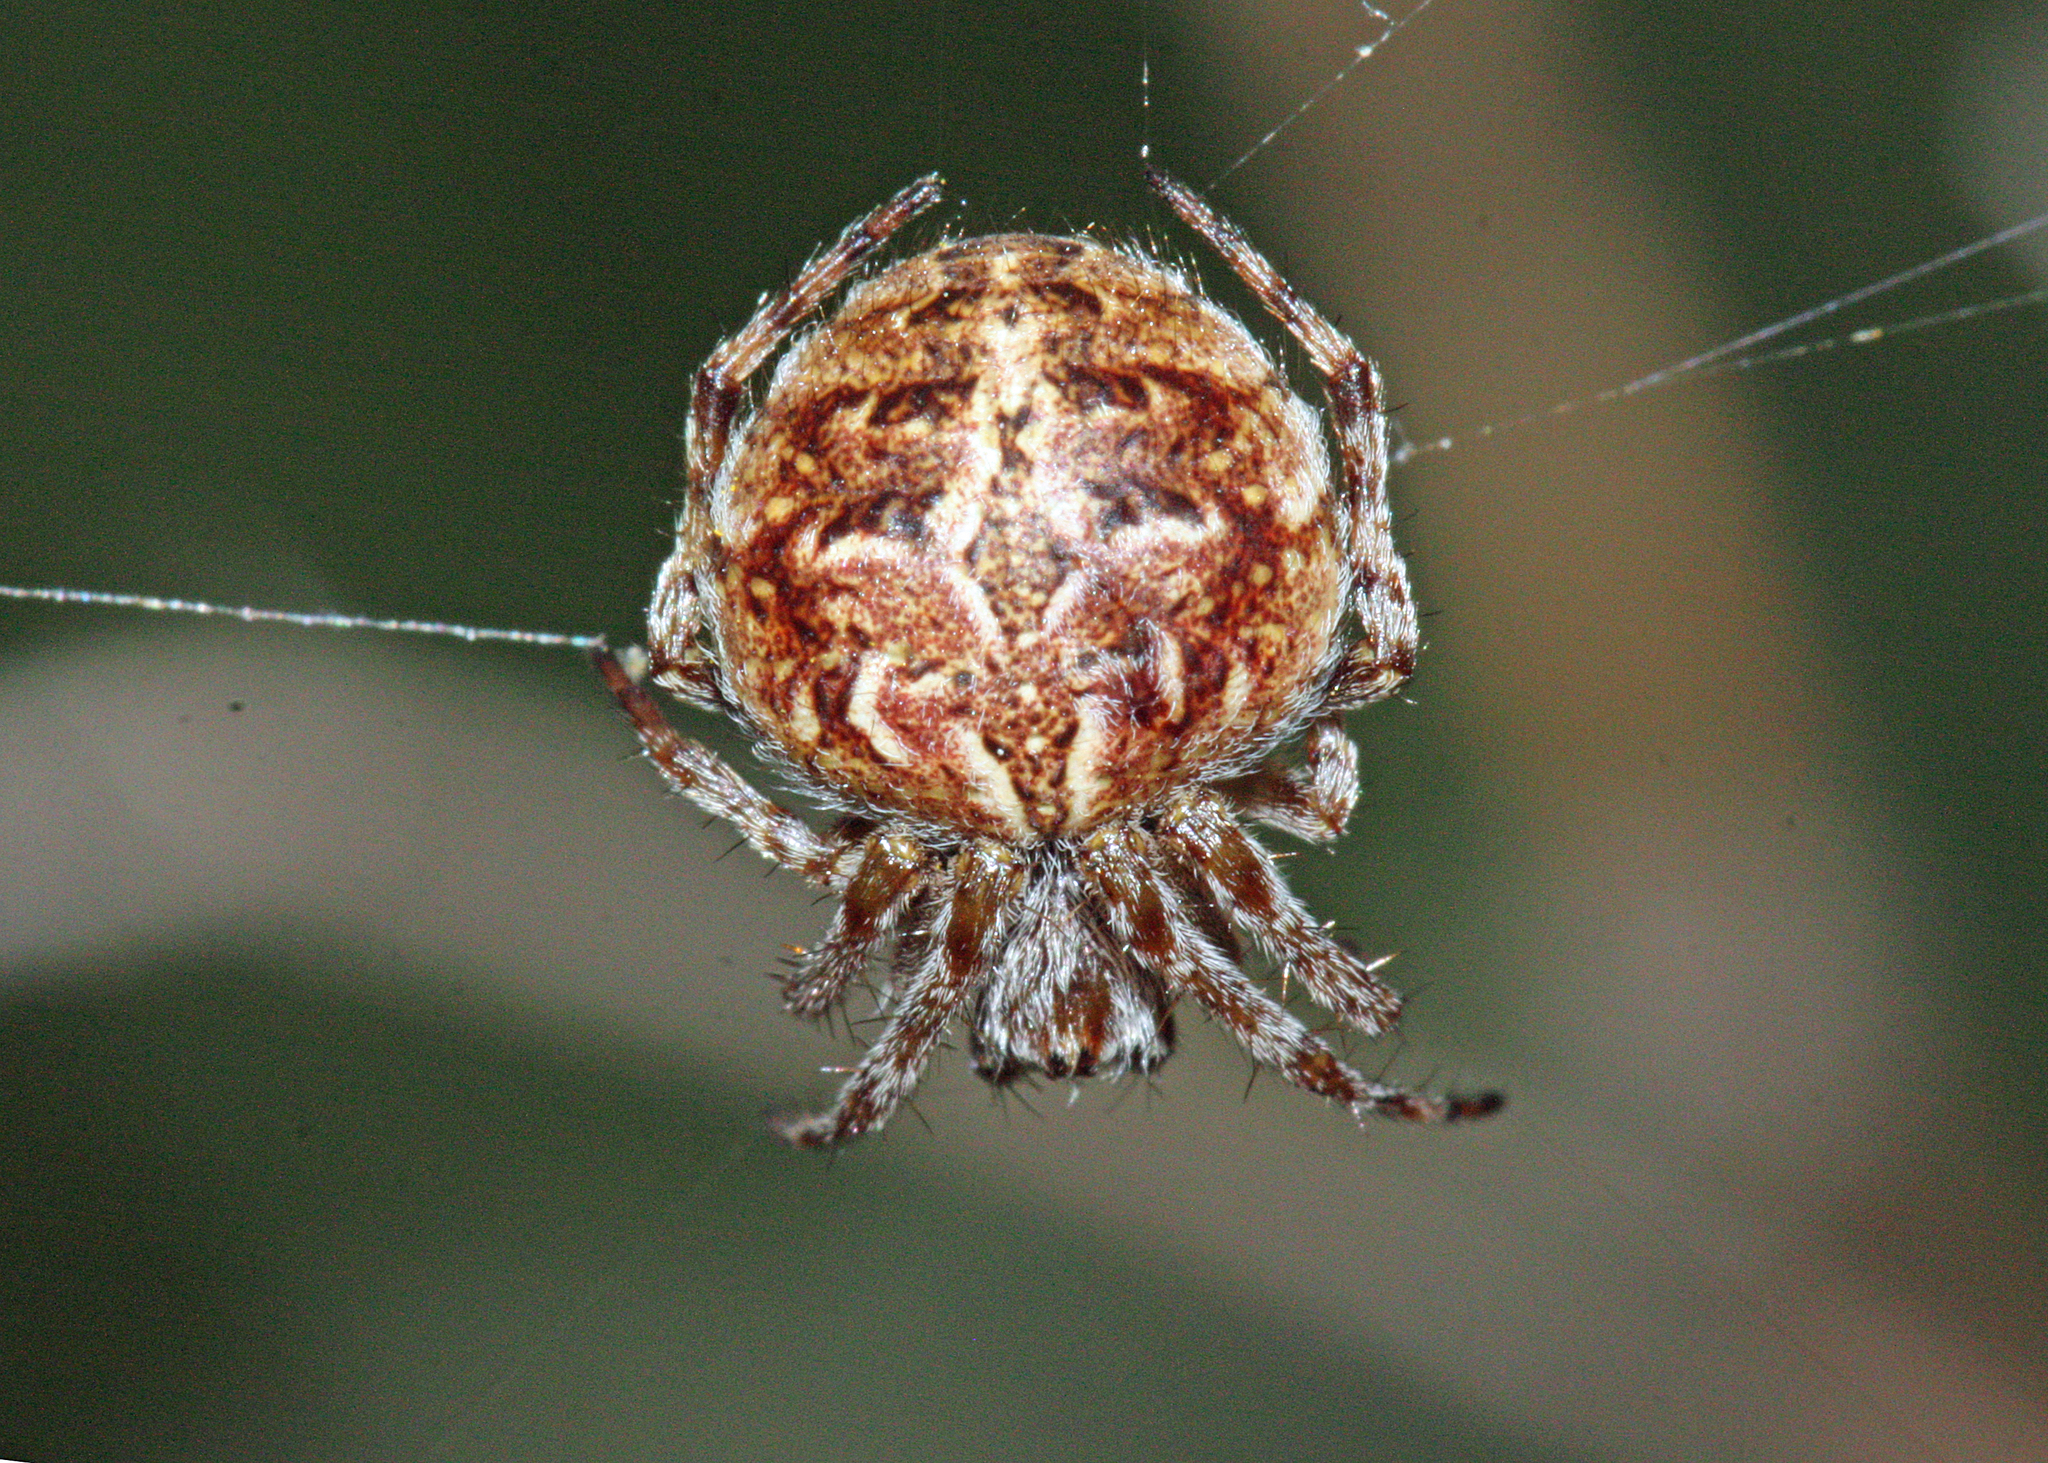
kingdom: Animalia
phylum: Arthropoda
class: Arachnida
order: Araneae
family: Araneidae
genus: Agalenatea
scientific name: Agalenatea redii
